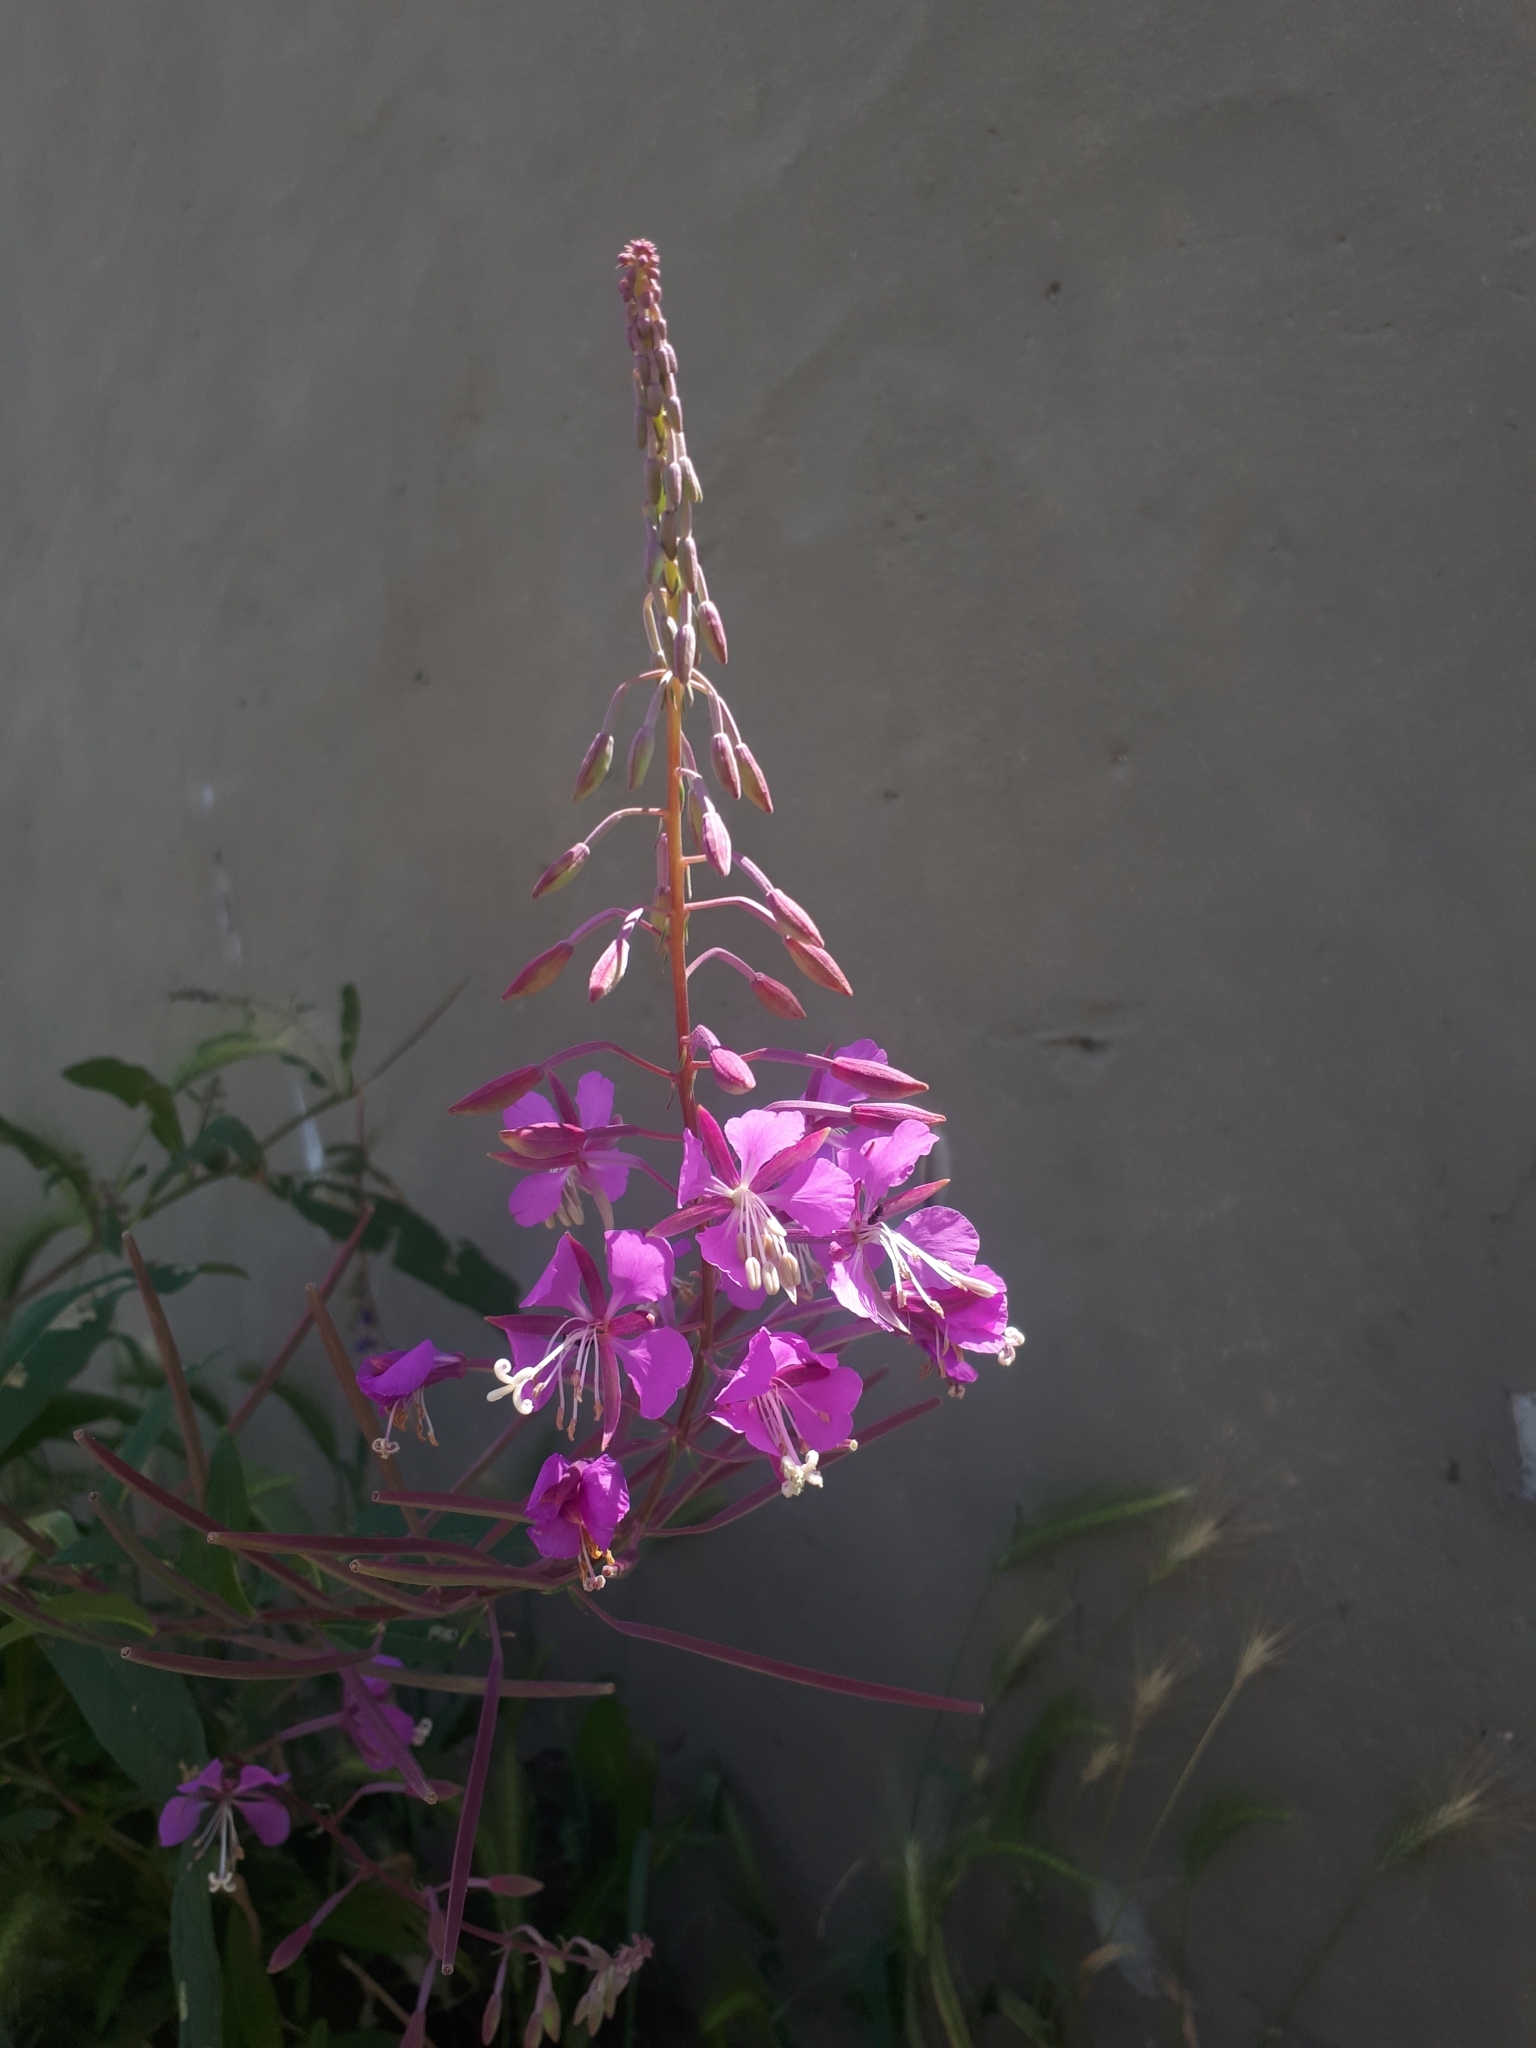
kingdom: Plantae
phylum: Tracheophyta
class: Magnoliopsida
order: Myrtales
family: Onagraceae
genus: Chamaenerion
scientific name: Chamaenerion angustifolium
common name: Fireweed
